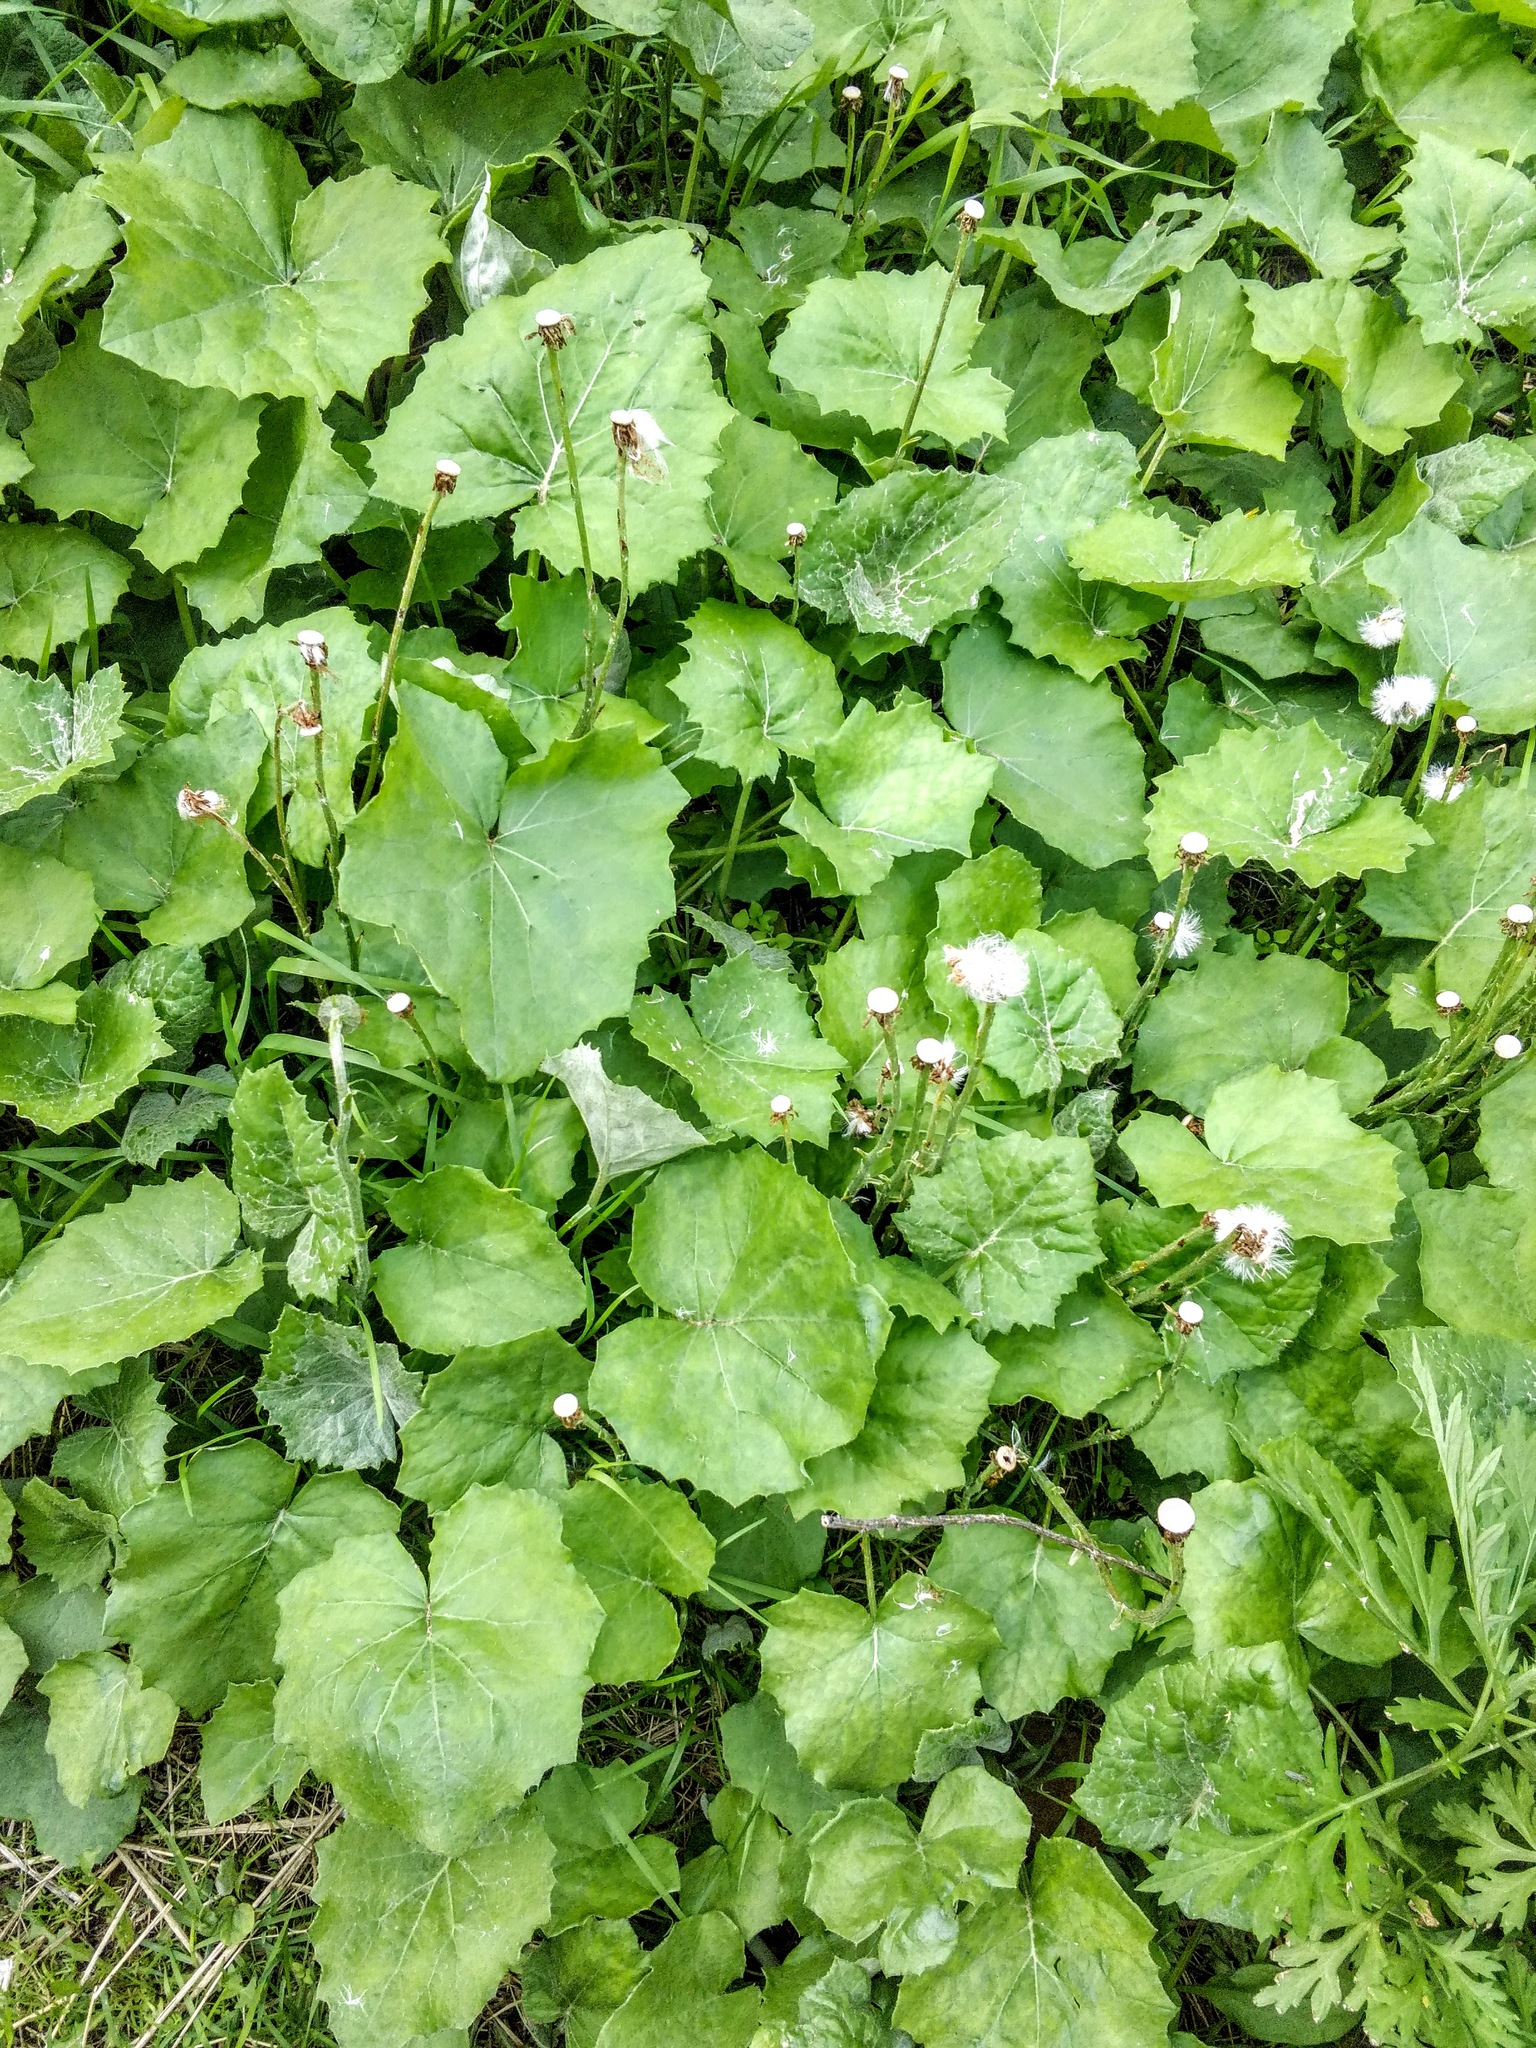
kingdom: Plantae
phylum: Tracheophyta
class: Magnoliopsida
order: Asterales
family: Asteraceae
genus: Tussilago
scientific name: Tussilago farfara
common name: Coltsfoot
